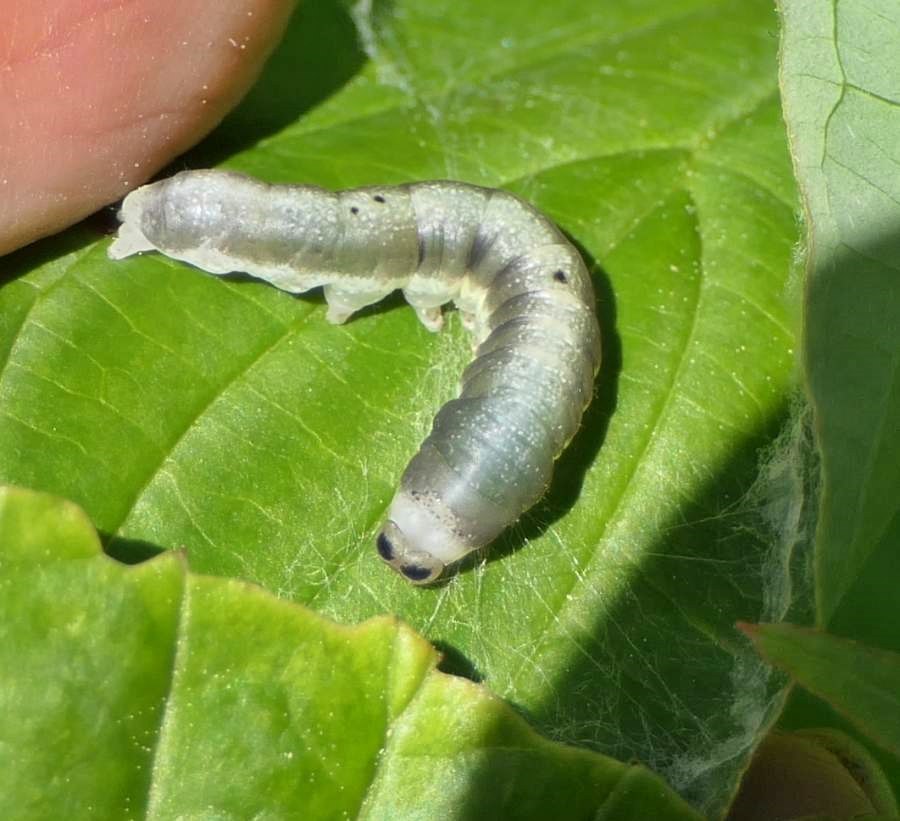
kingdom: Animalia
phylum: Arthropoda
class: Insecta
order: Lepidoptera
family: Drepanidae
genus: Euthyatira
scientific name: Euthyatira pudens
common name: Dogwood thyatirid moth
